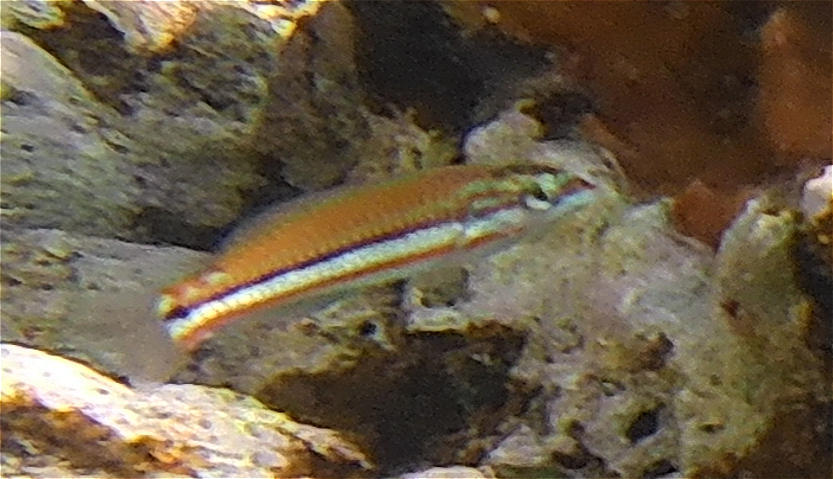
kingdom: Animalia
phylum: Chordata
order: Perciformes
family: Labridae
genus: Thalassoma
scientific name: Thalassoma rueppellii
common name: Klunzinger's wrasse
